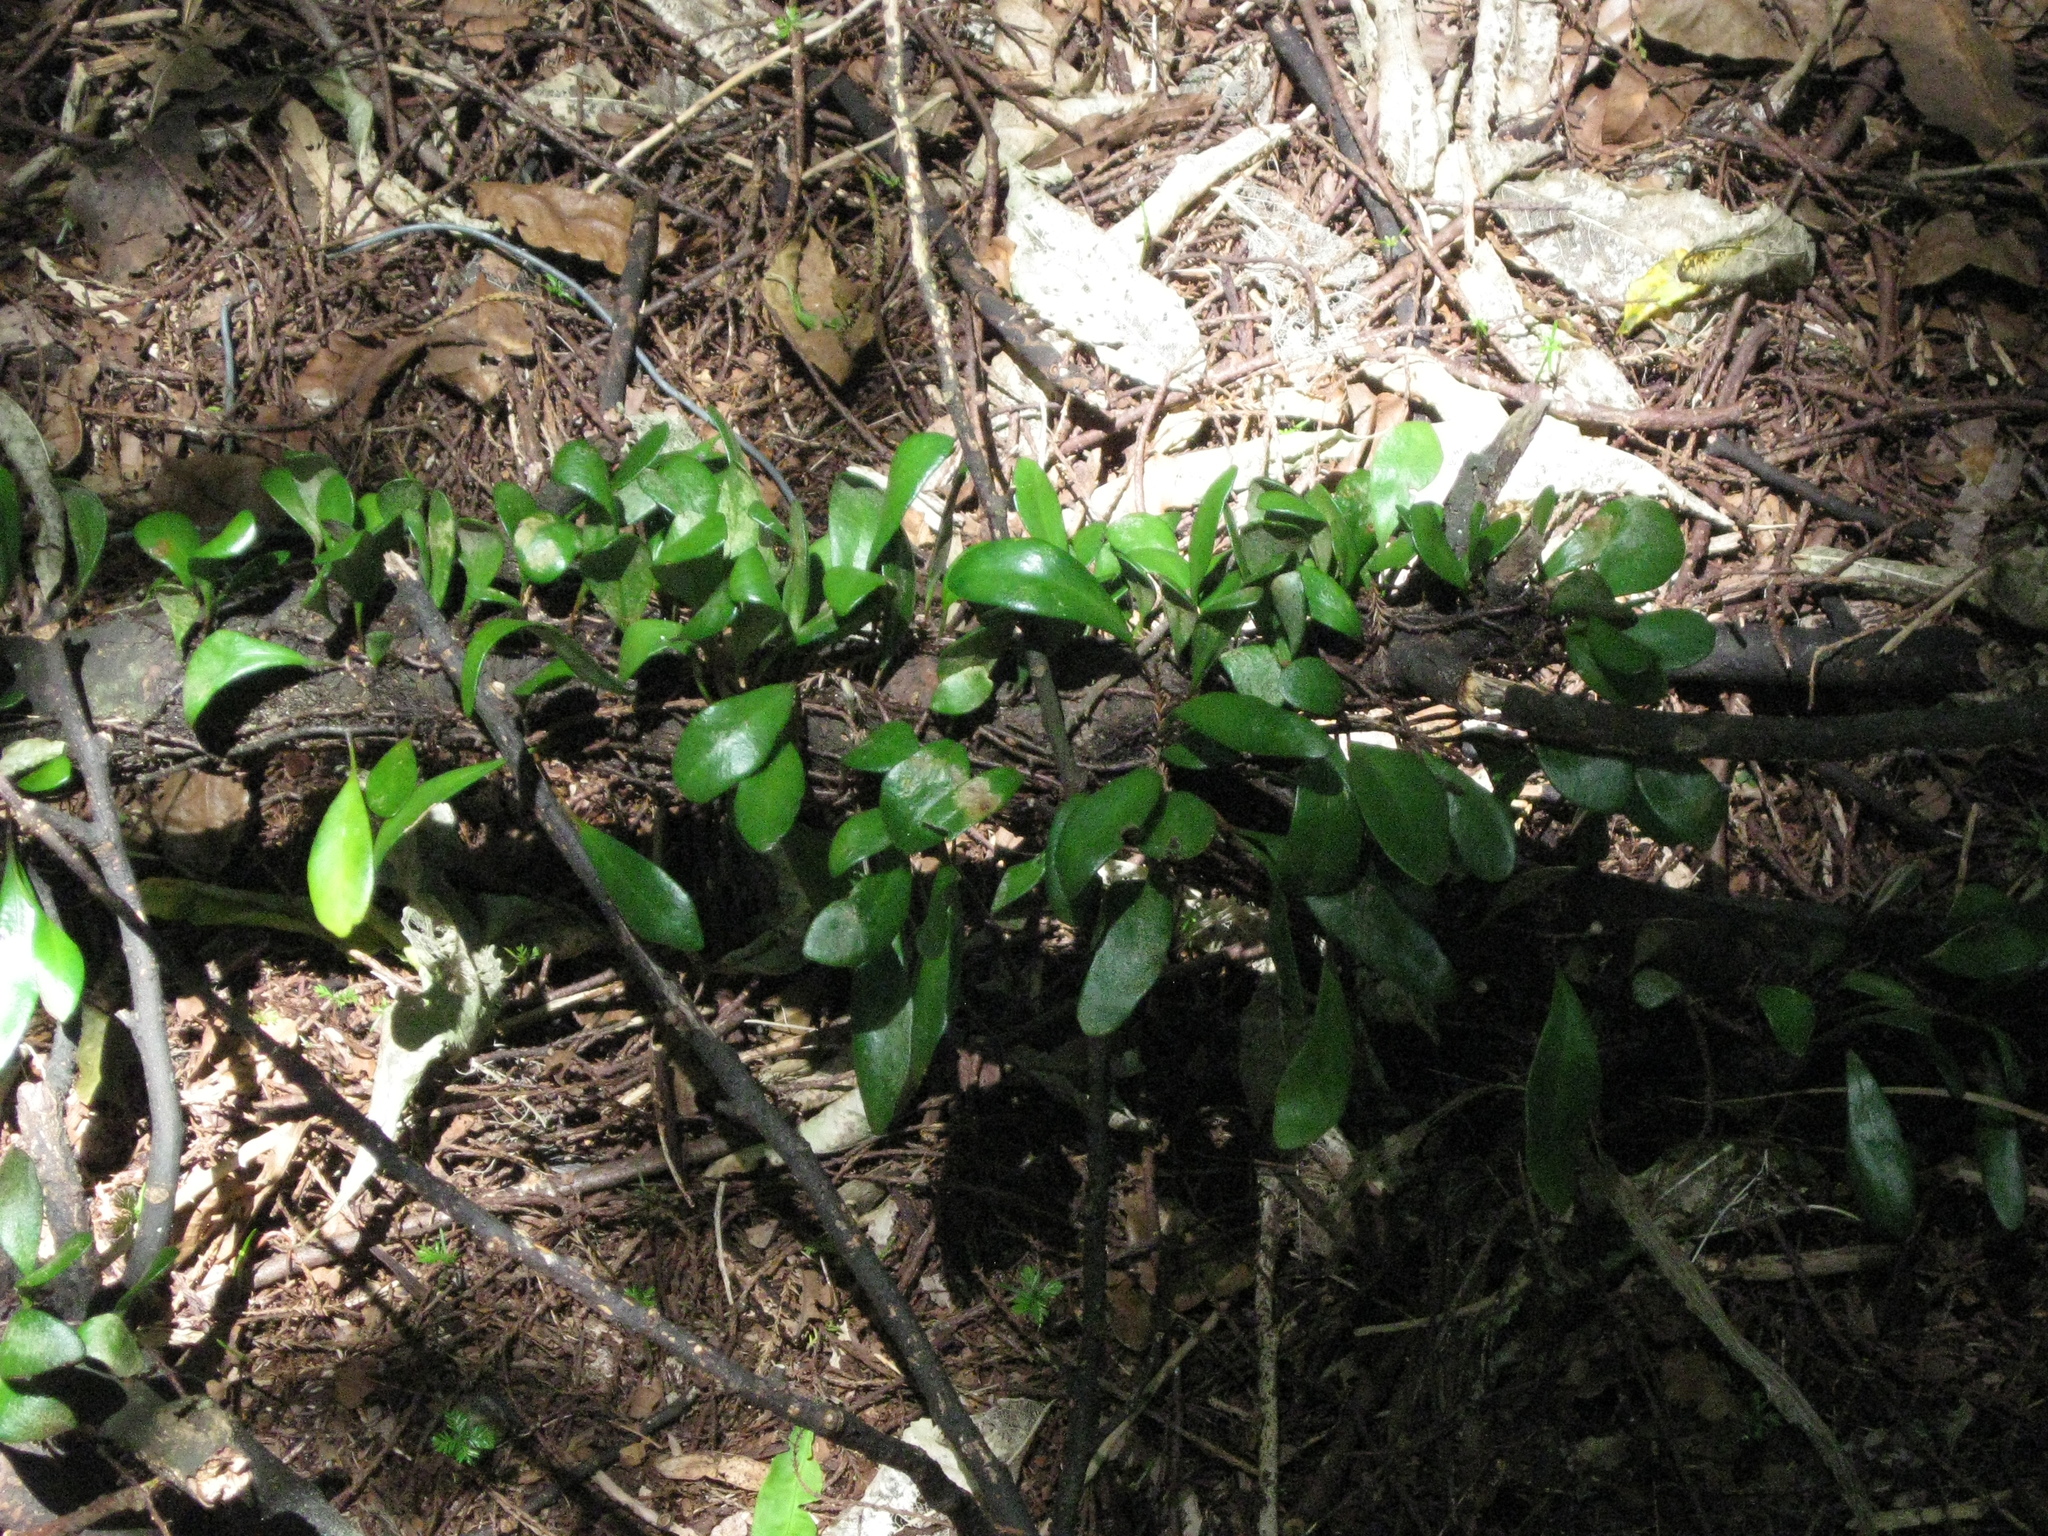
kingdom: Plantae
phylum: Tracheophyta
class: Polypodiopsida
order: Polypodiales
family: Polypodiaceae
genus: Pyrrosia
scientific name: Pyrrosia eleagnifolia
